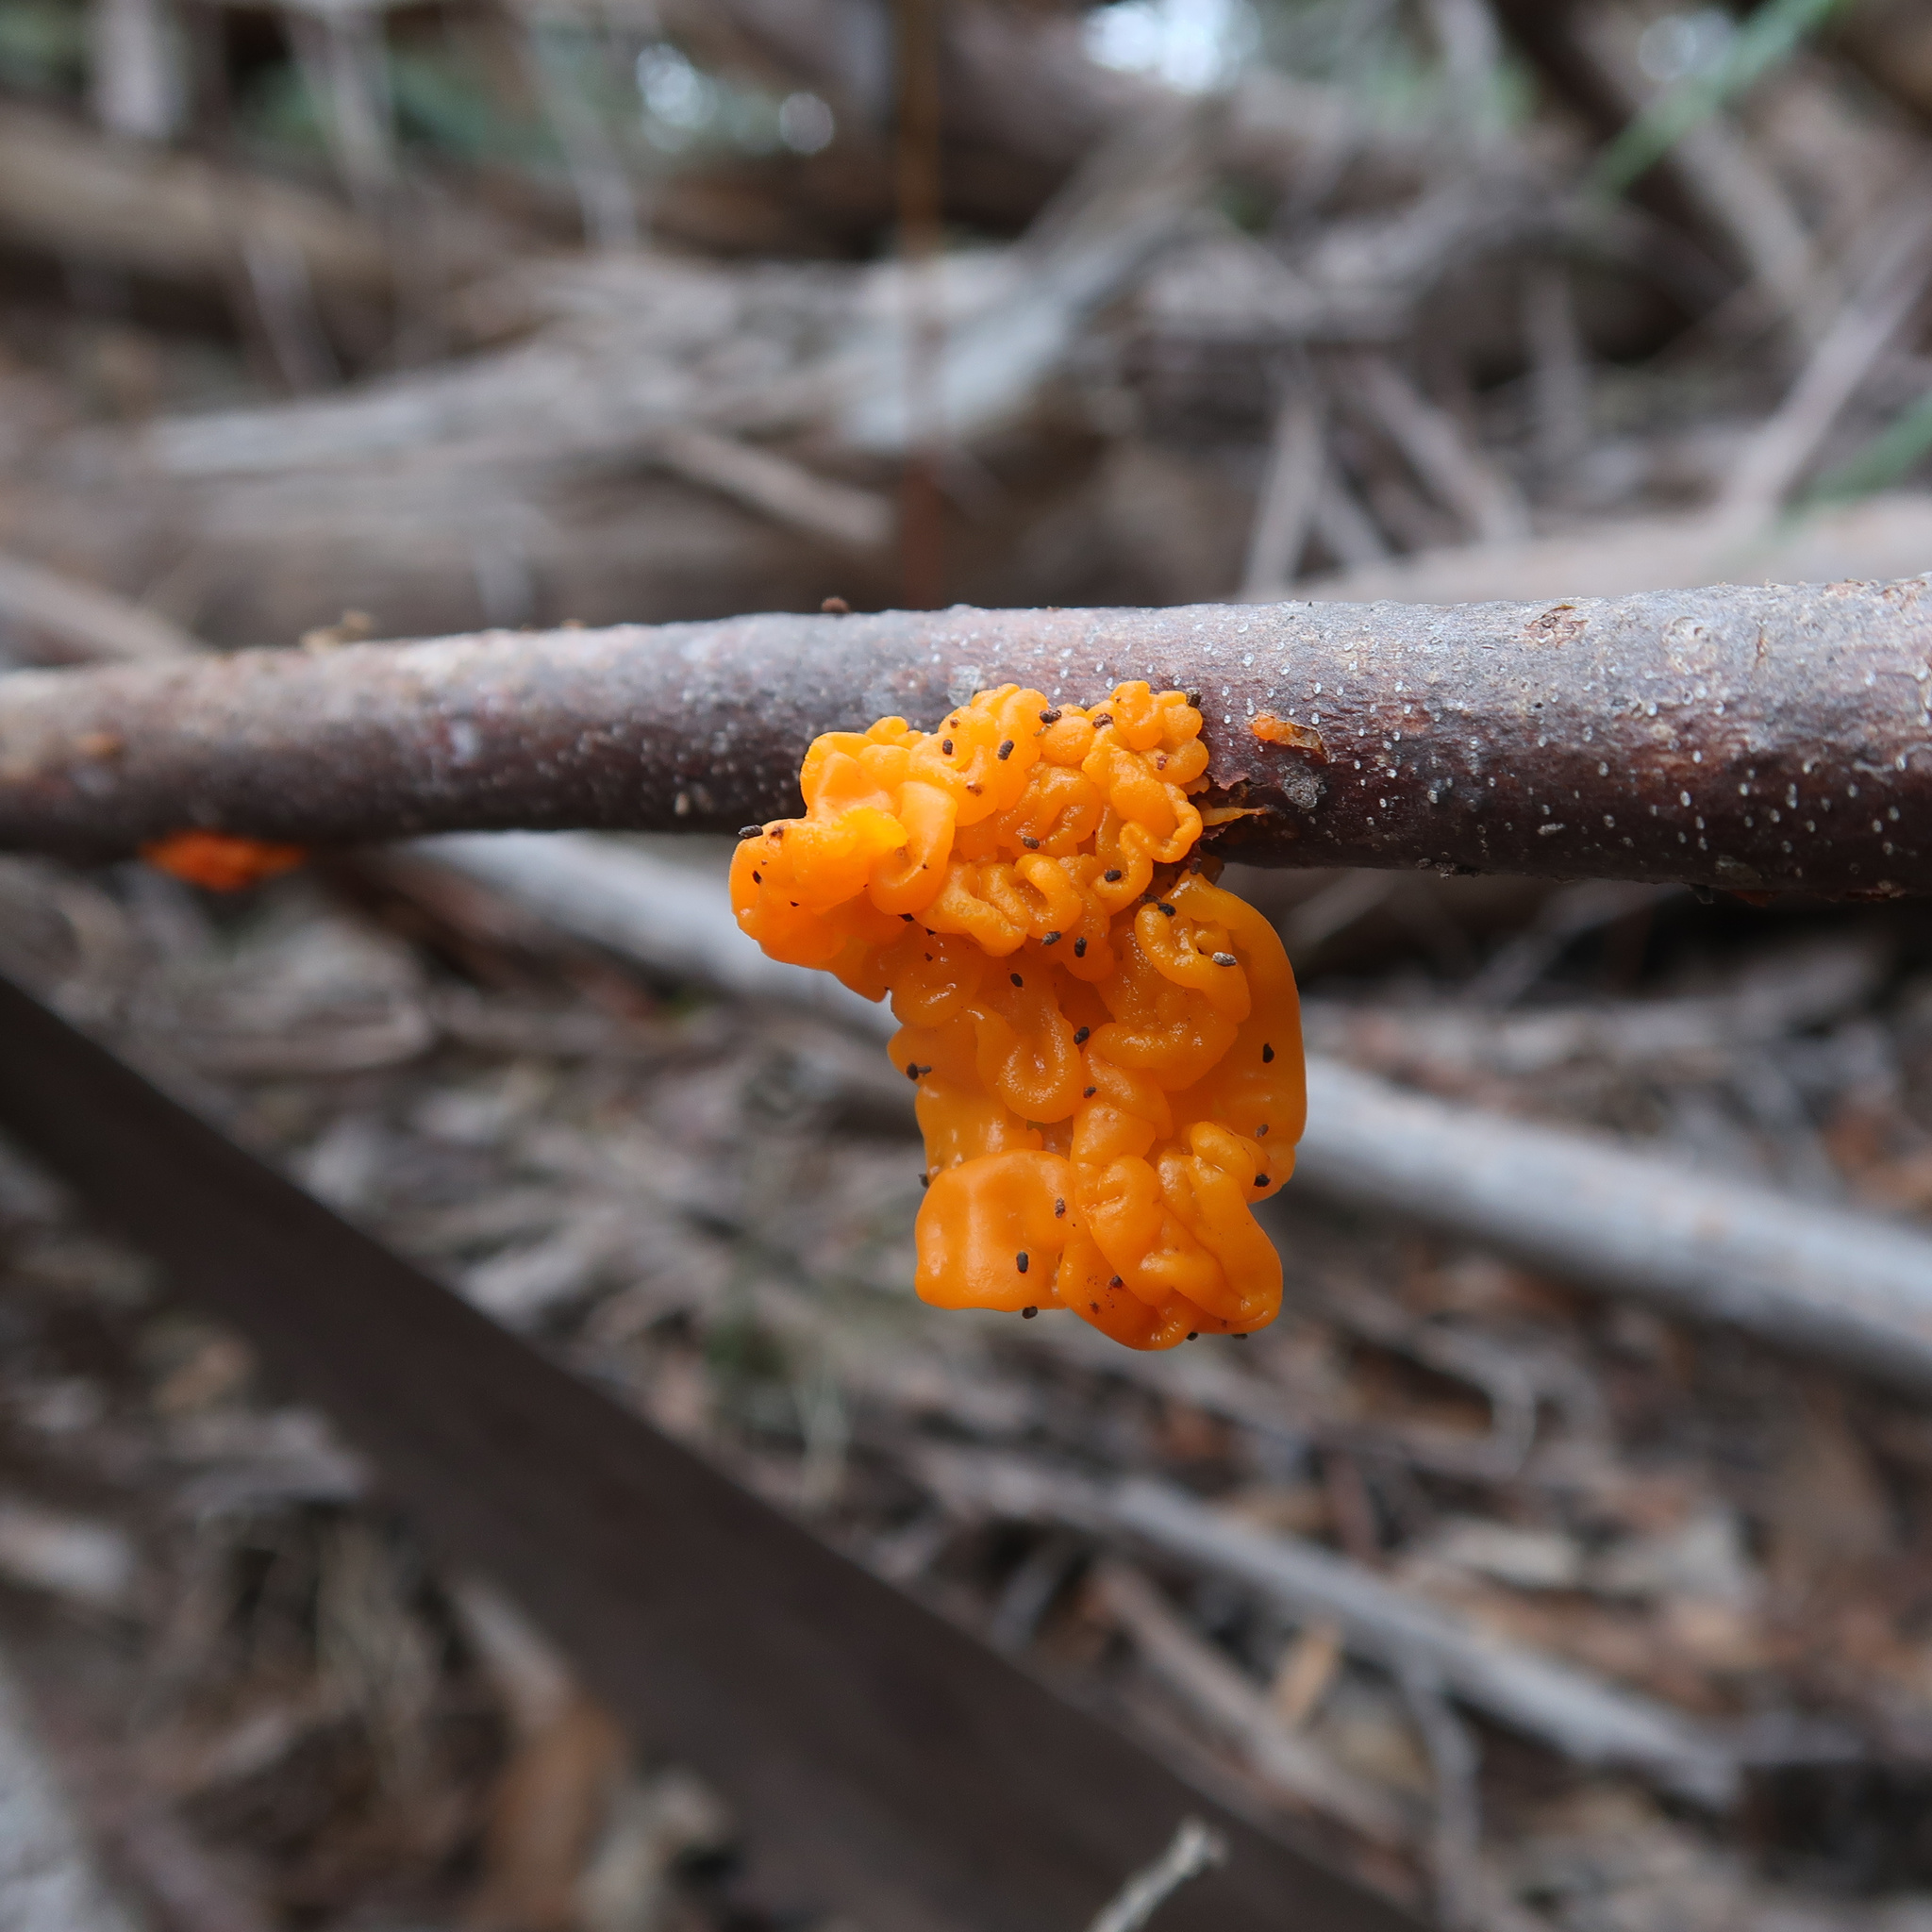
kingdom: Fungi
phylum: Basidiomycota
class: Tremellomycetes
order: Tremellales
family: Tremellaceae
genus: Tremella
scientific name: Tremella mesenterica
